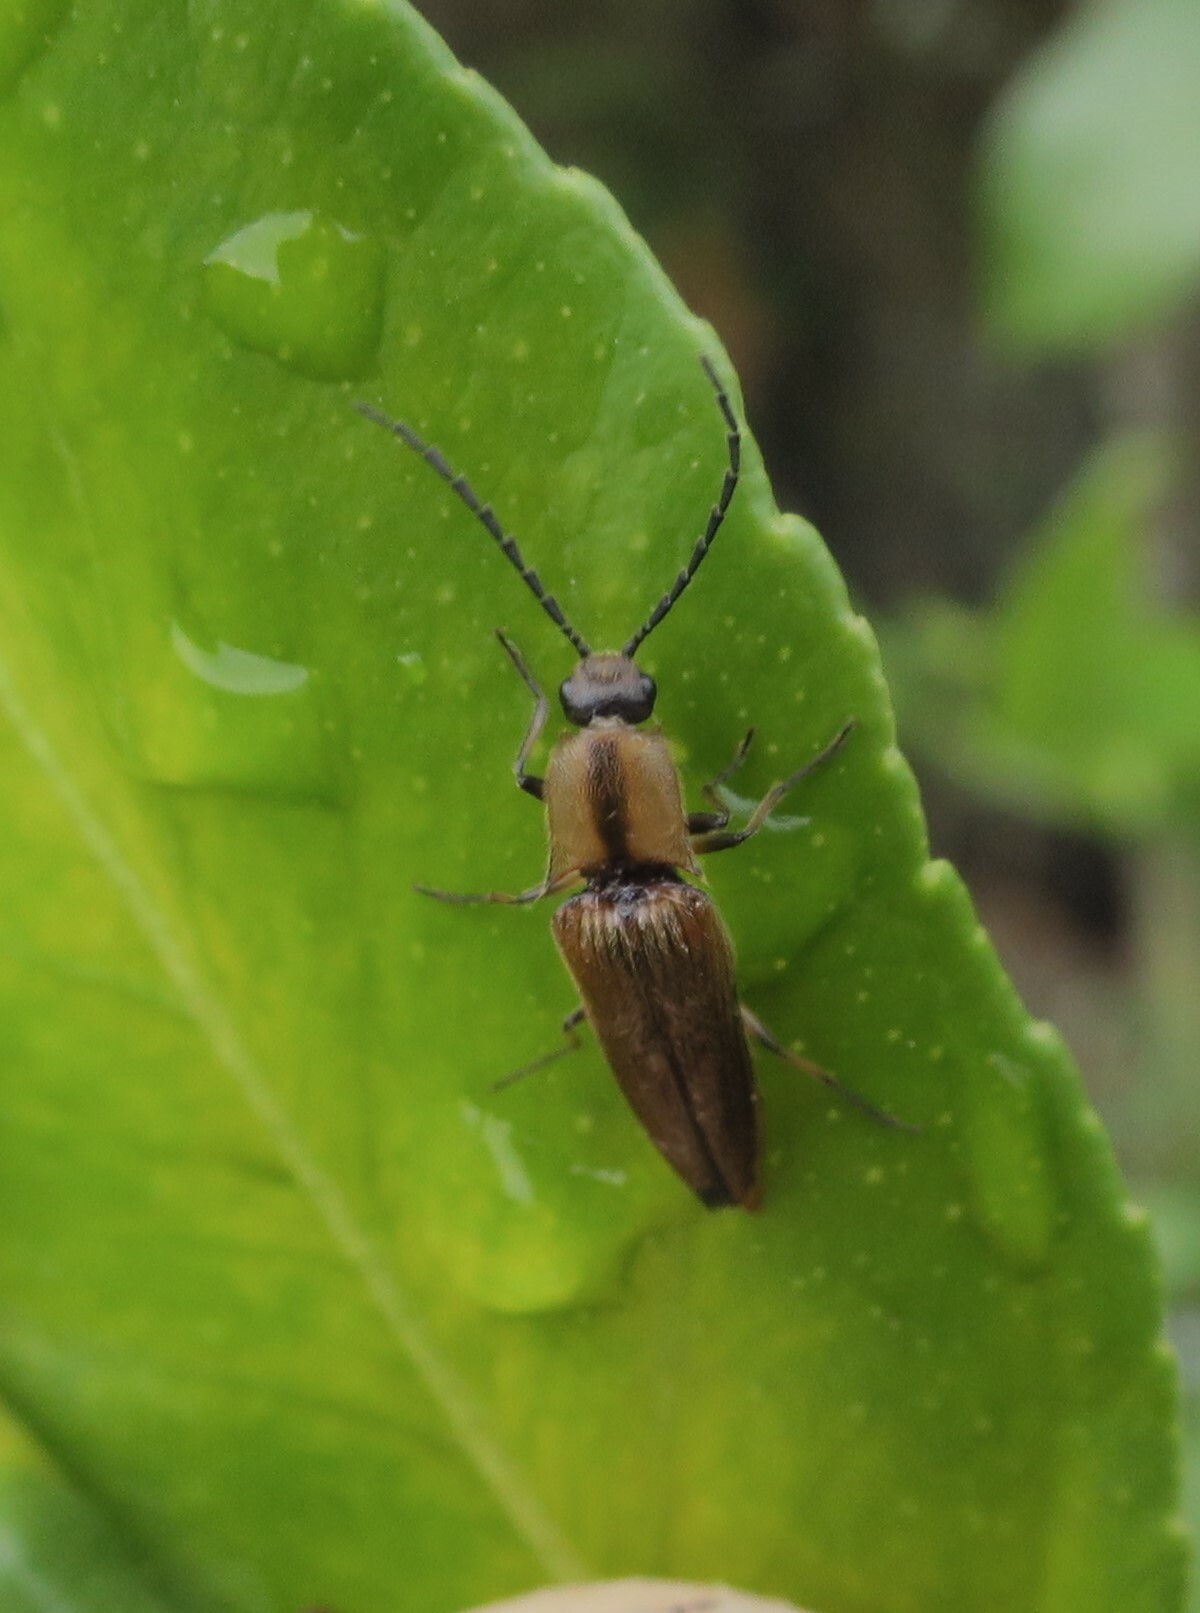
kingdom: Animalia
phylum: Arthropoda
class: Insecta
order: Coleoptera
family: Elateridae
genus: Sphaenelater
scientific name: Sphaenelater
